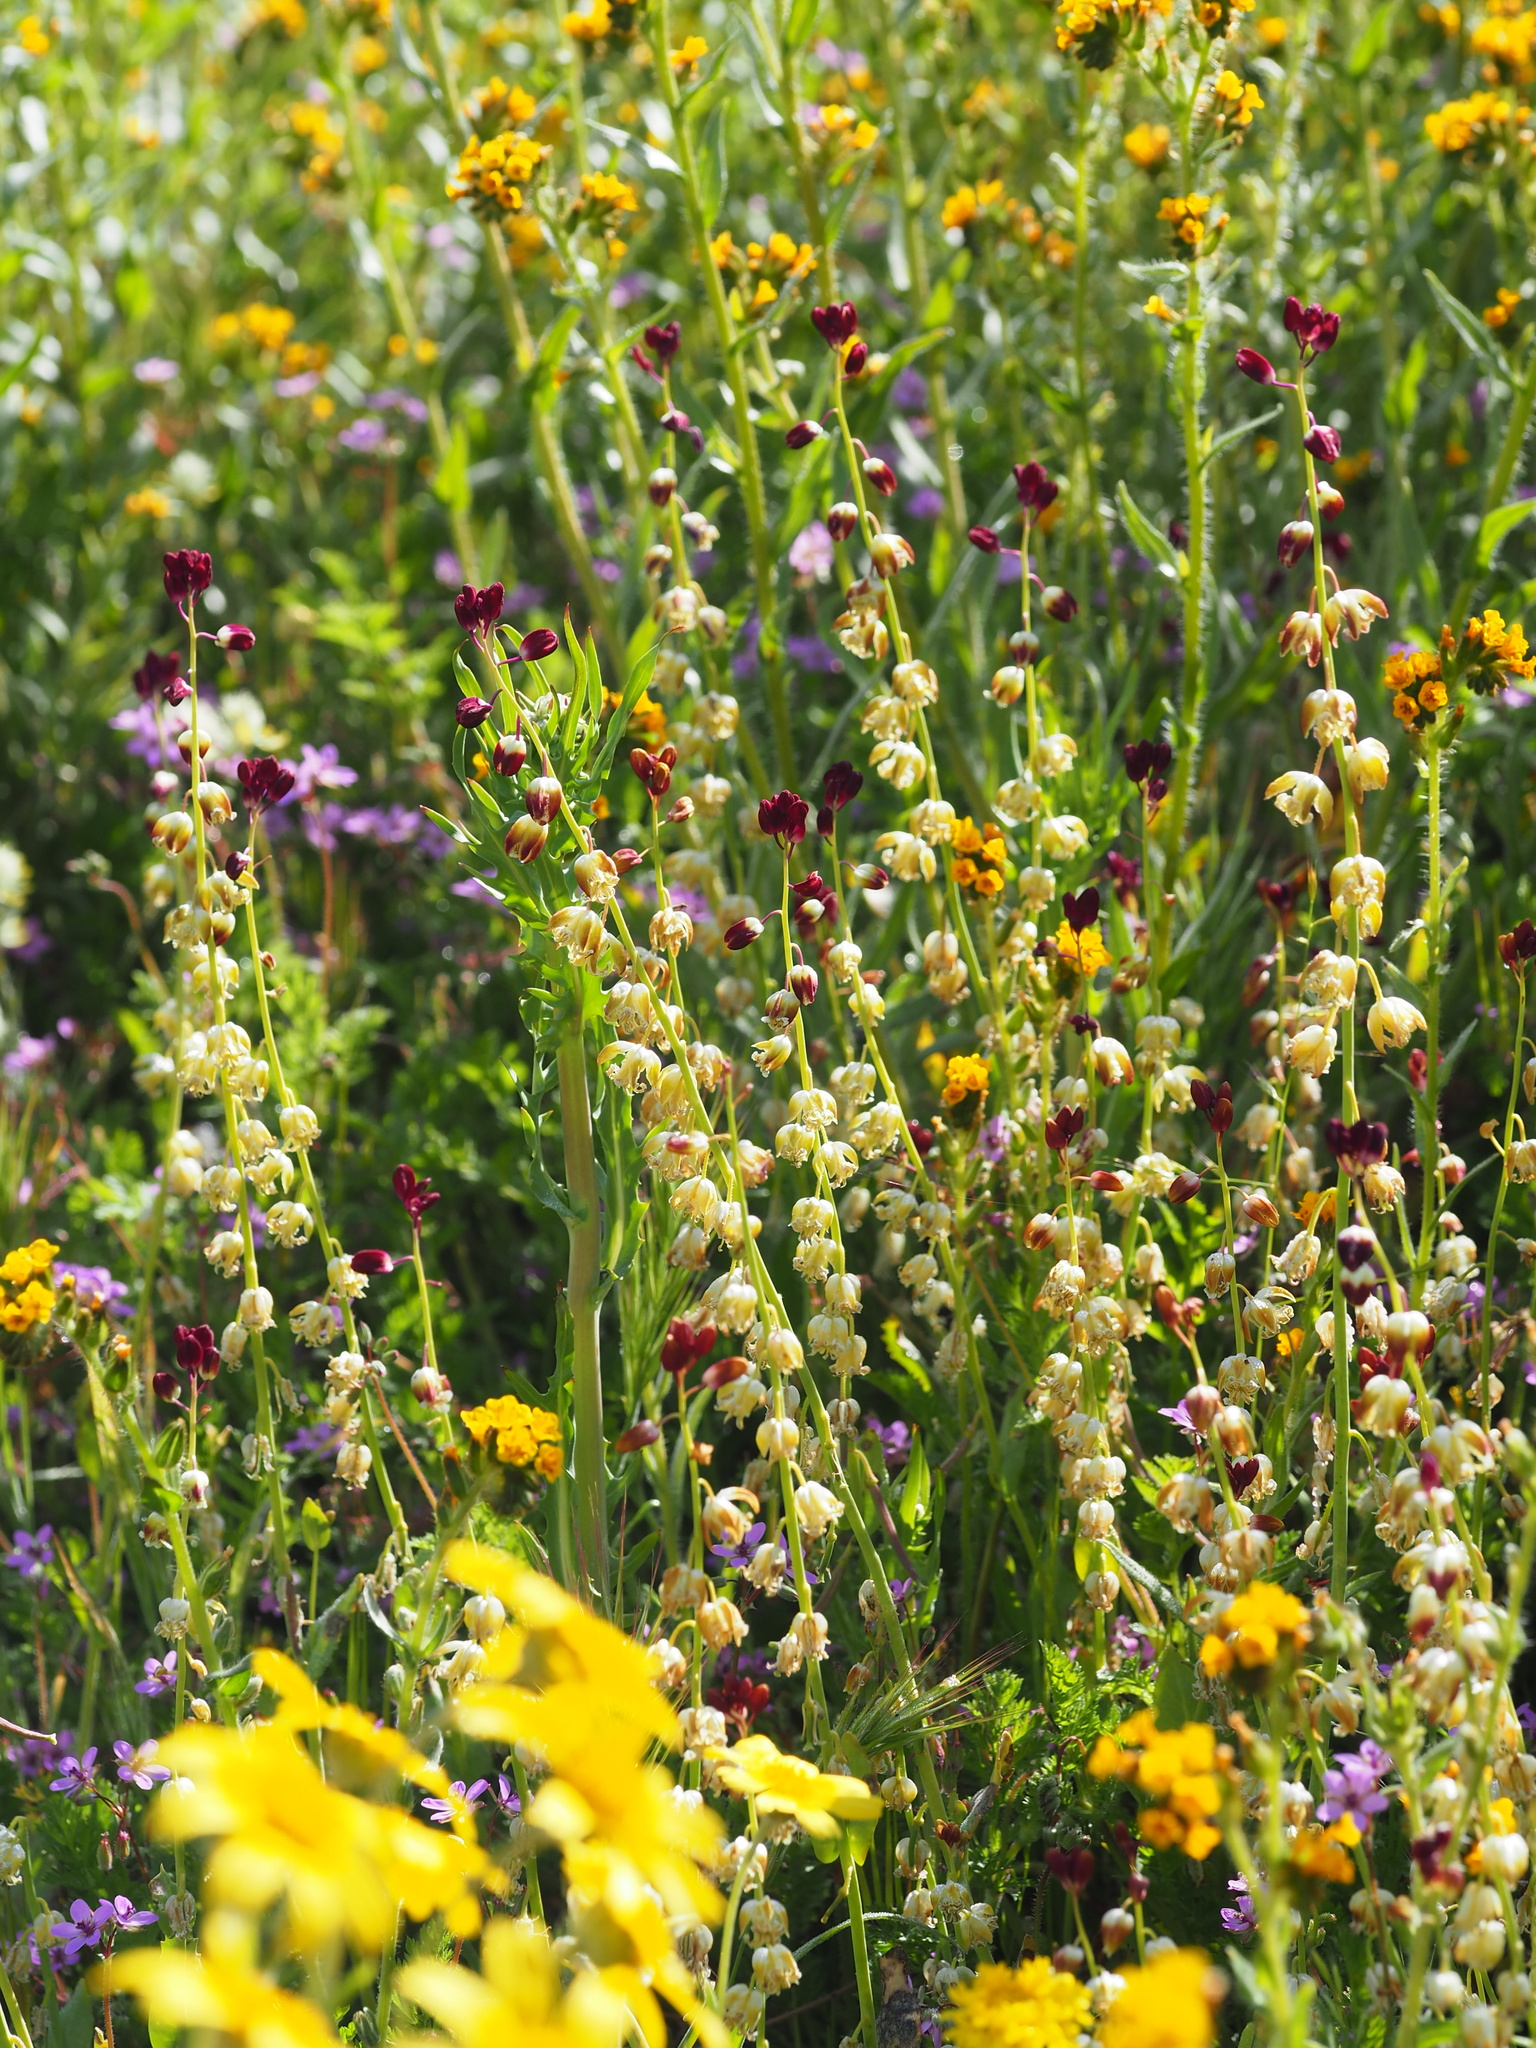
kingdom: Plantae
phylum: Tracheophyta
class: Magnoliopsida
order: Brassicales
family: Brassicaceae
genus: Streptanthus
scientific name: Streptanthus californicus
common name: California-jewel-flower
